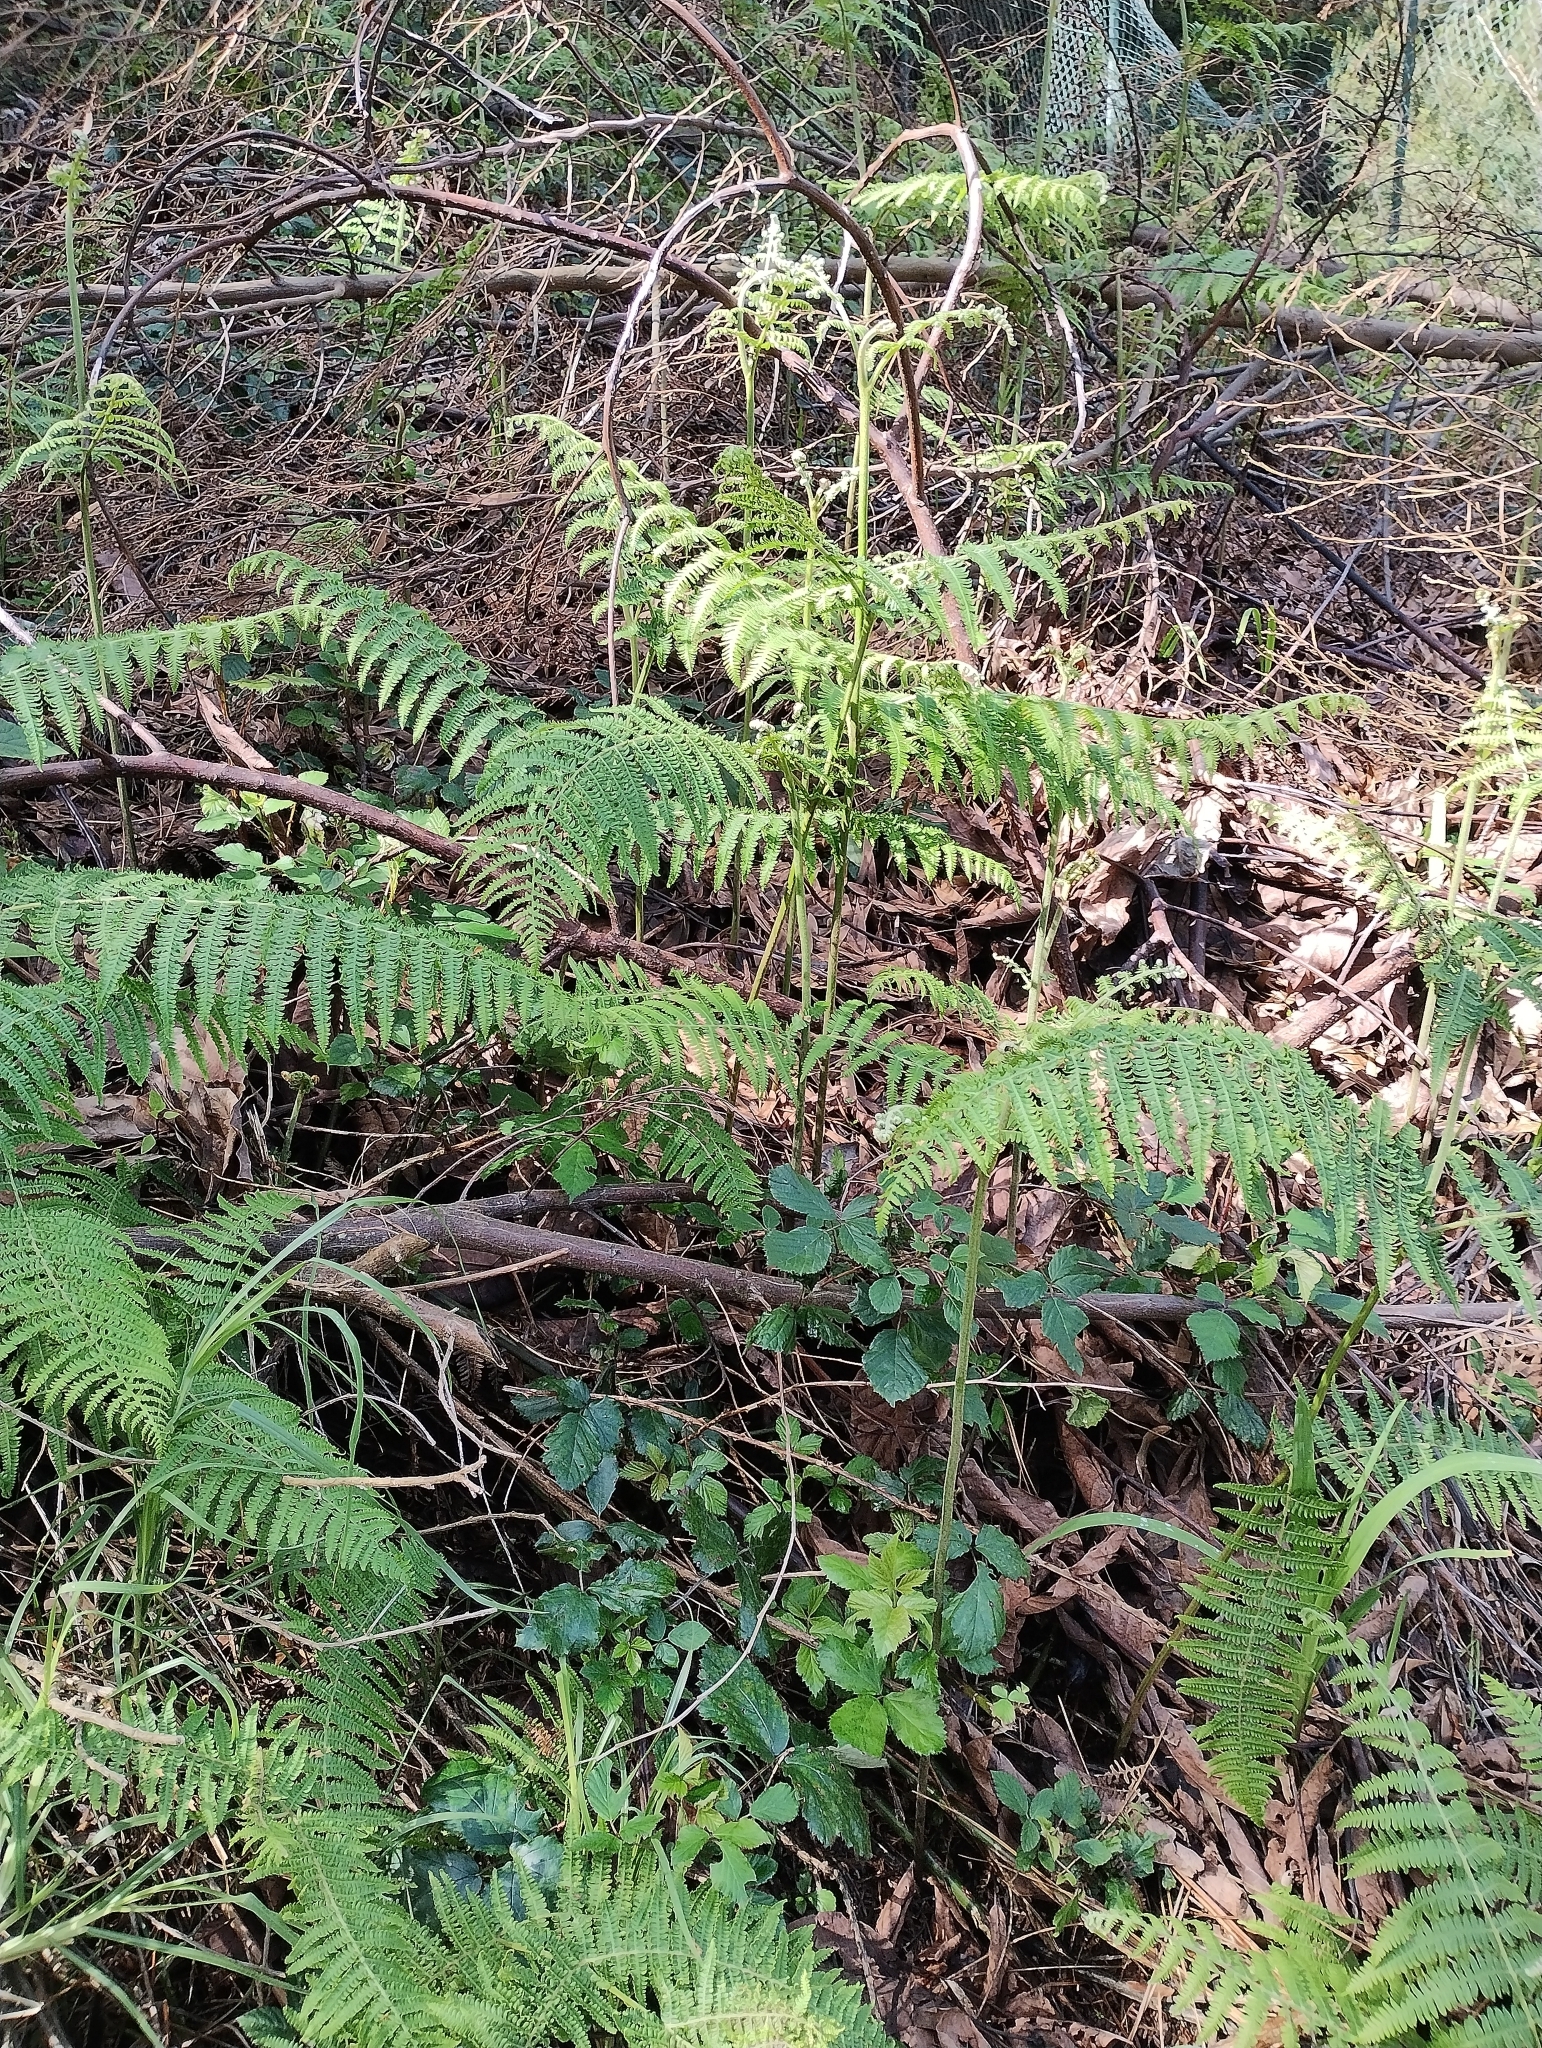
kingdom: Plantae
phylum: Tracheophyta
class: Polypodiopsida
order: Polypodiales
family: Dennstaedtiaceae
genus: Pteridium
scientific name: Pteridium aquilinum
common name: Bracken
